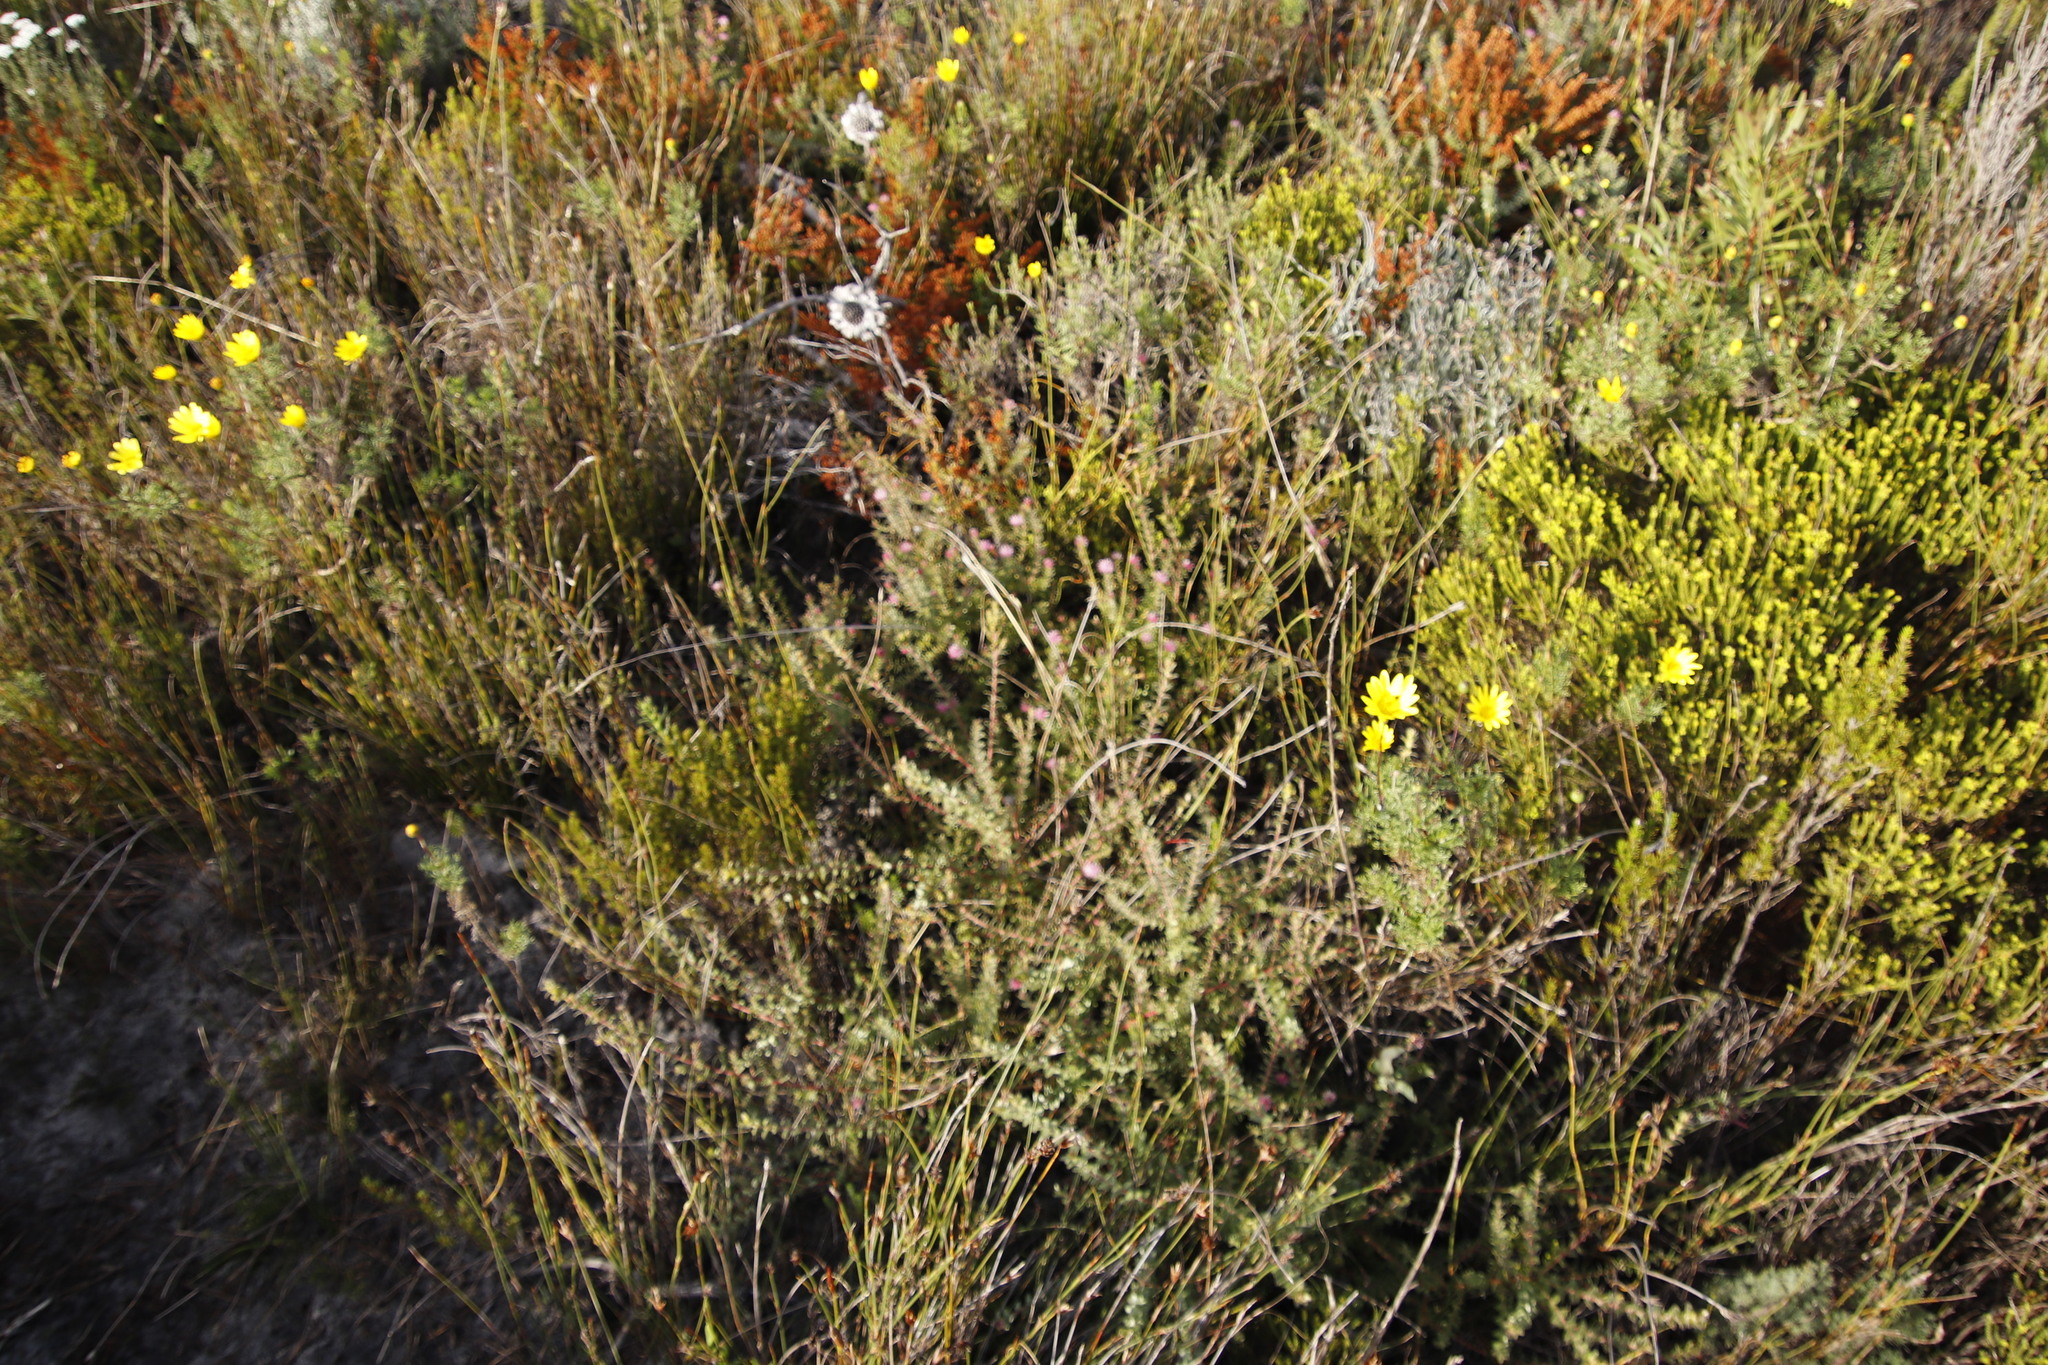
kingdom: Plantae
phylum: Tracheophyta
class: Magnoliopsida
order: Proteales
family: Proteaceae
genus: Diastella
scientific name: Diastella divaricata
